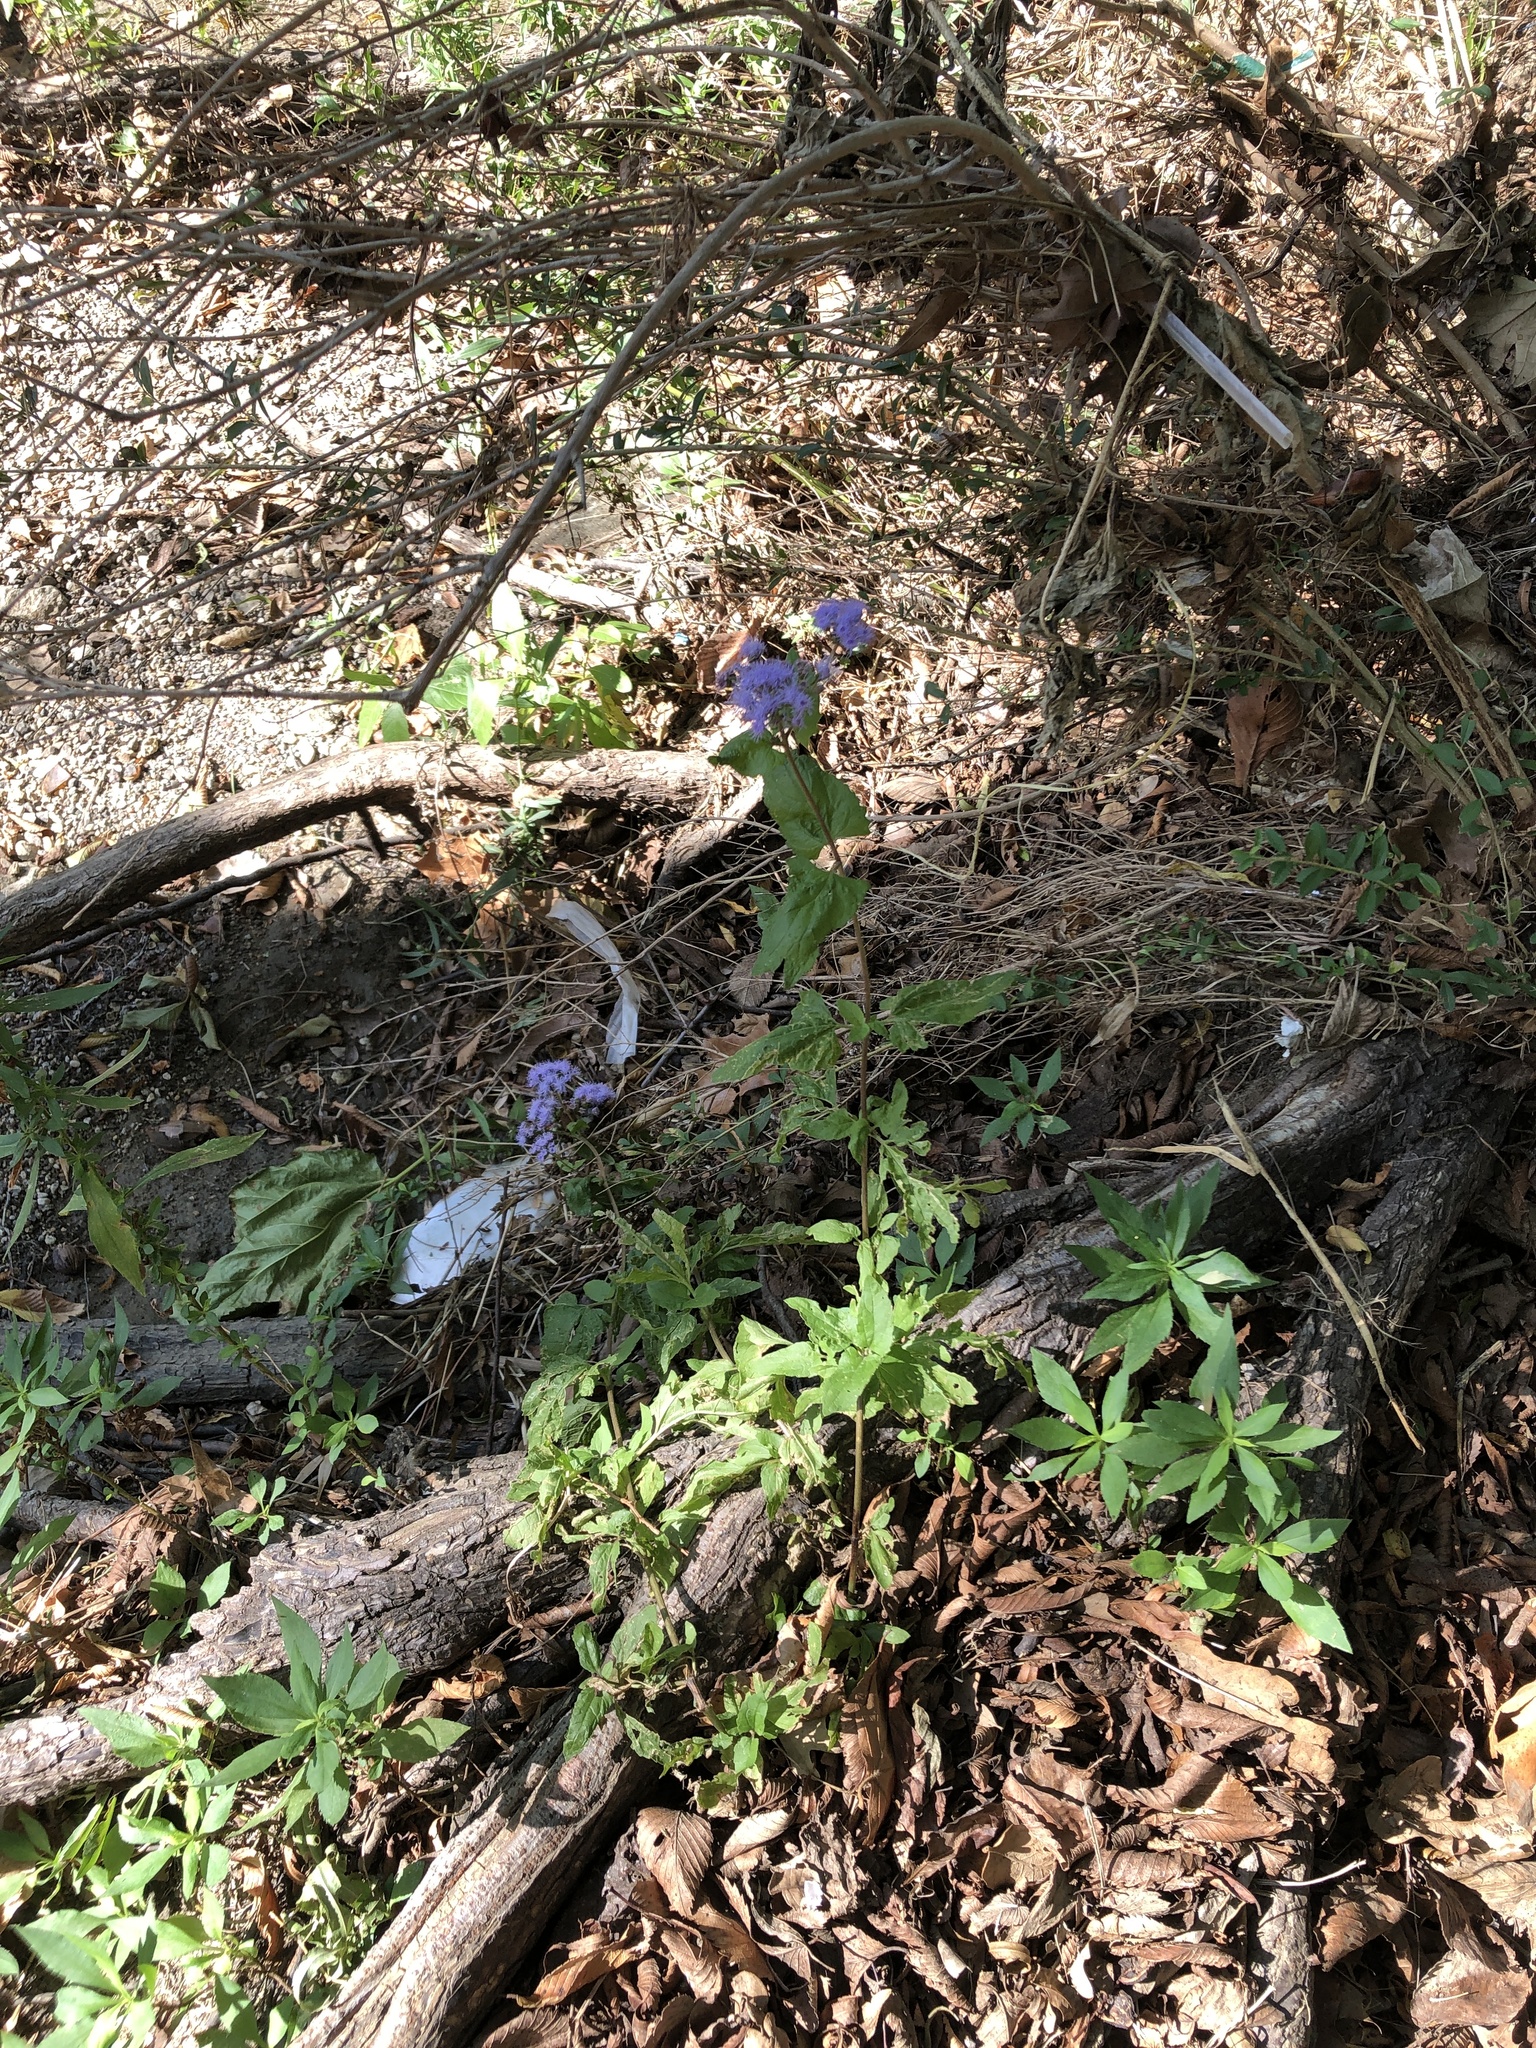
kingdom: Plantae
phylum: Tracheophyta
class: Magnoliopsida
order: Asterales
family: Asteraceae
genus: Conoclinium
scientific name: Conoclinium coelestinum
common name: Blue mistflower
